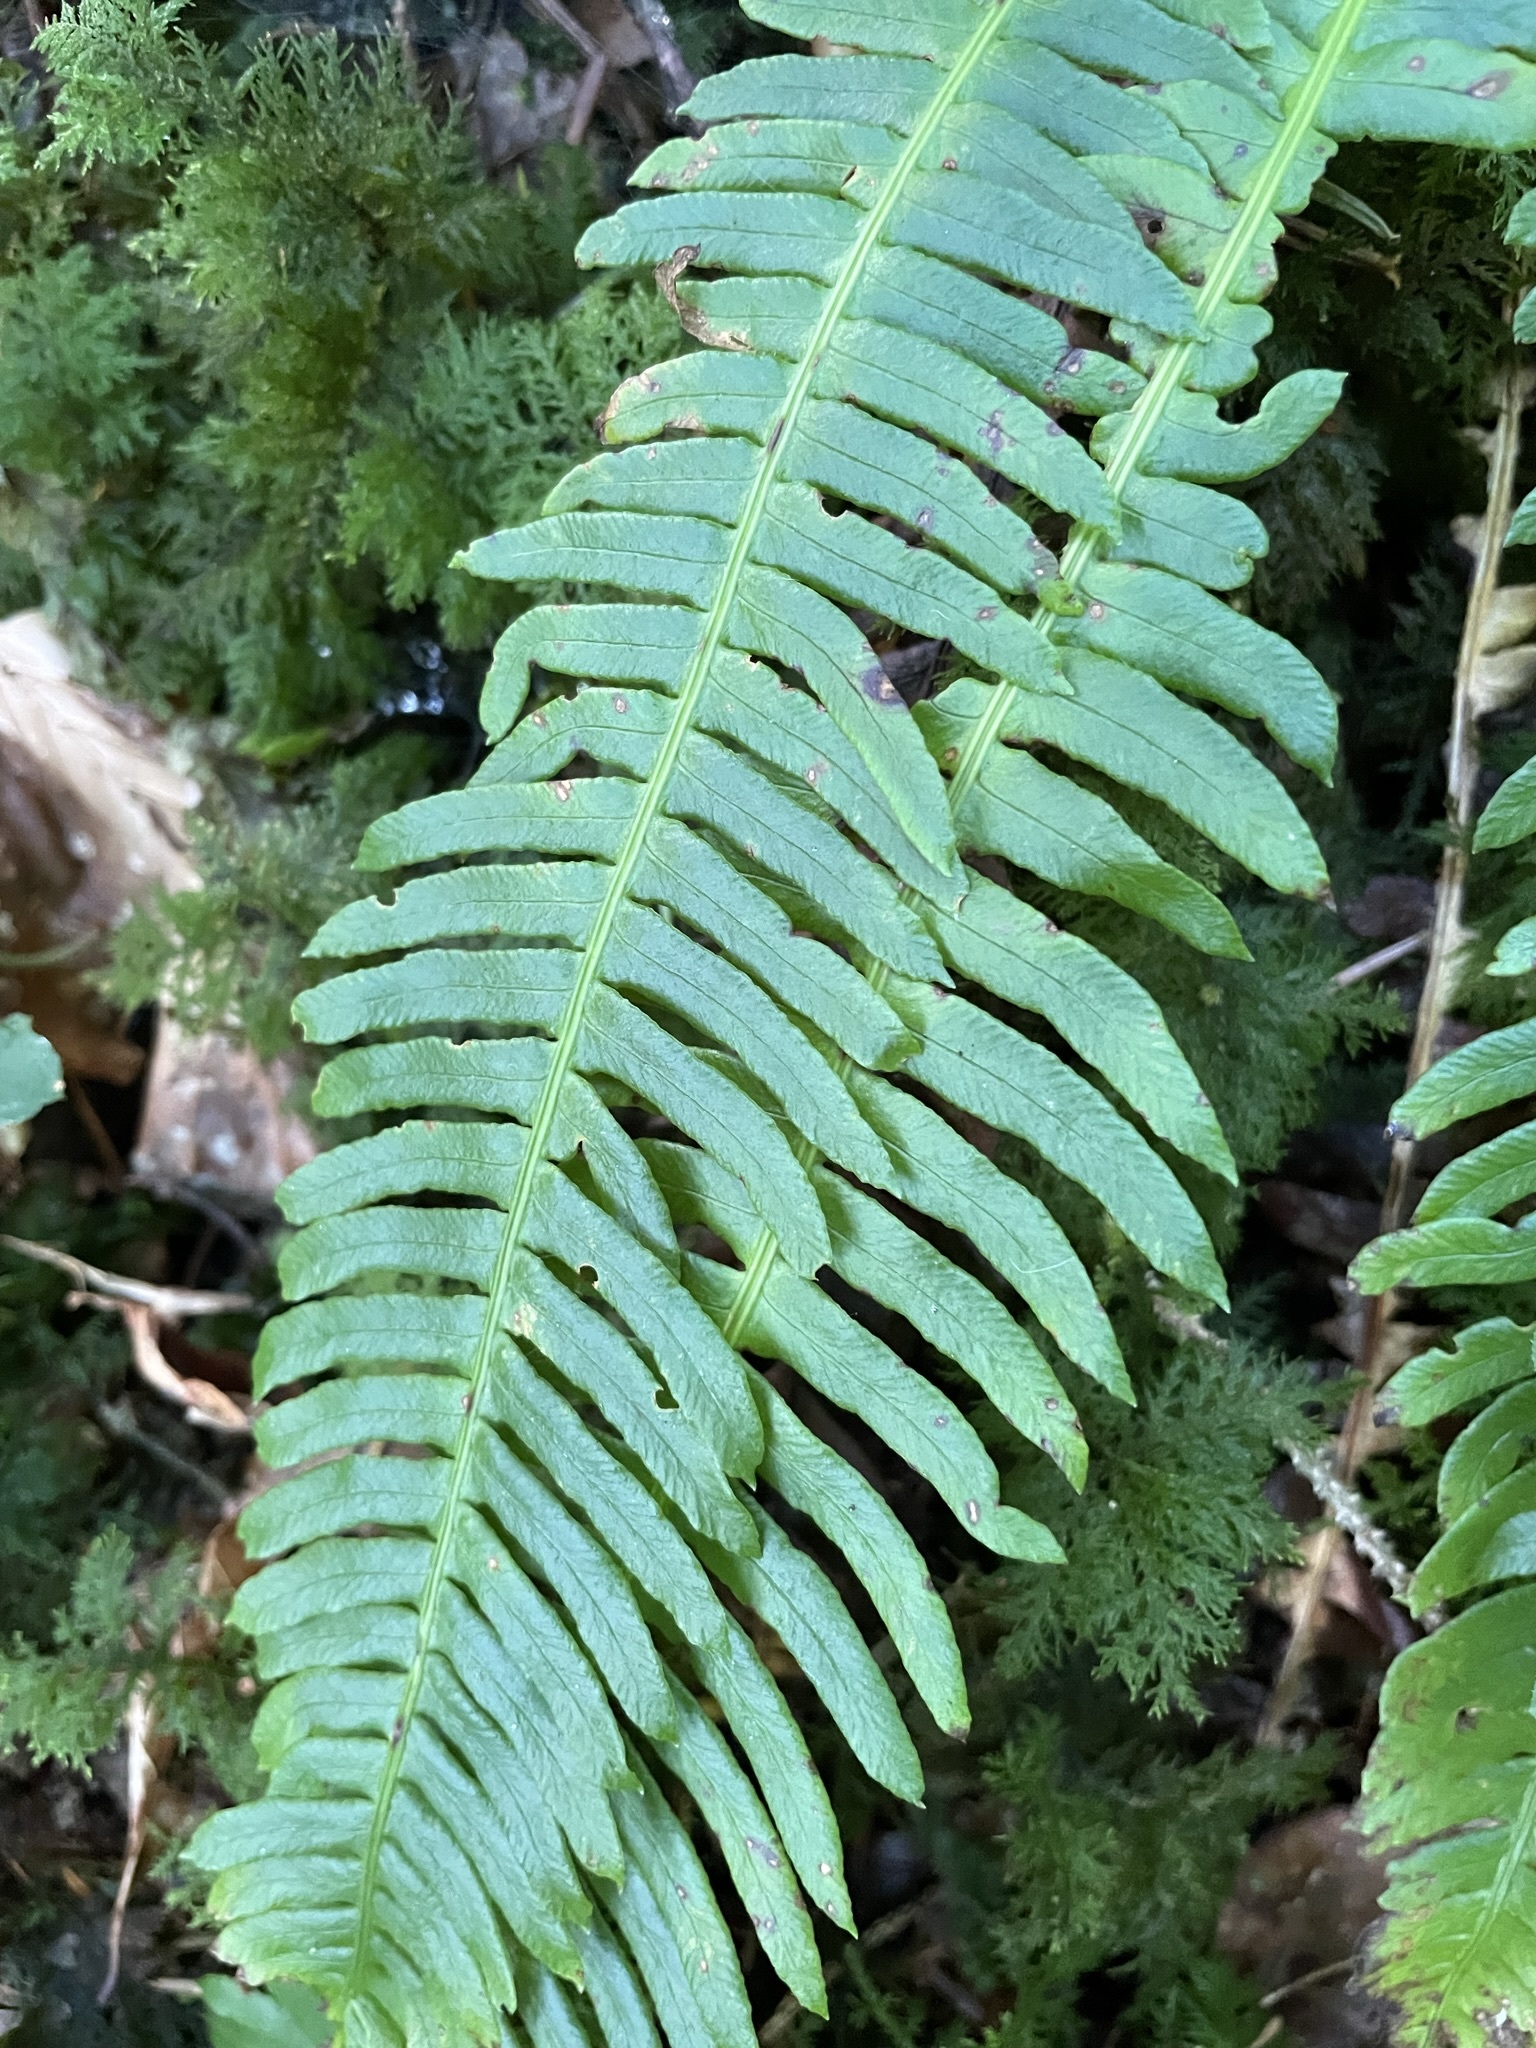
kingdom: Plantae
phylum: Tracheophyta
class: Polypodiopsida
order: Polypodiales
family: Blechnaceae
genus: Struthiopteris
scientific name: Struthiopteris spicant
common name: Deer fern
